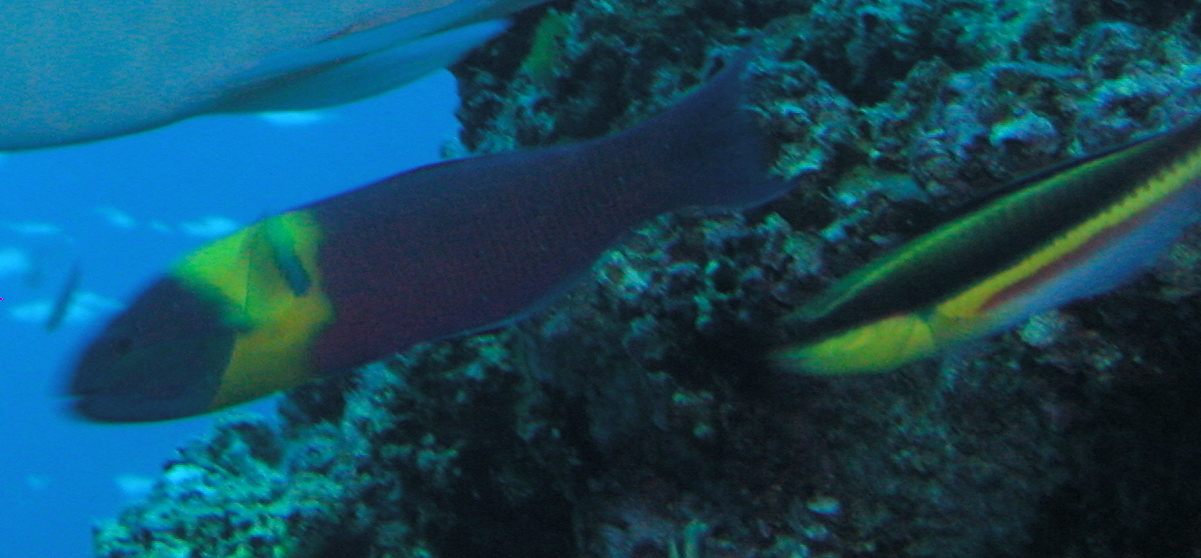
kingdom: Animalia
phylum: Chordata
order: Perciformes
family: Labridae
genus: Thalassoma
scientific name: Thalassoma lucasanum
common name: Cortez rainbow wrasse
